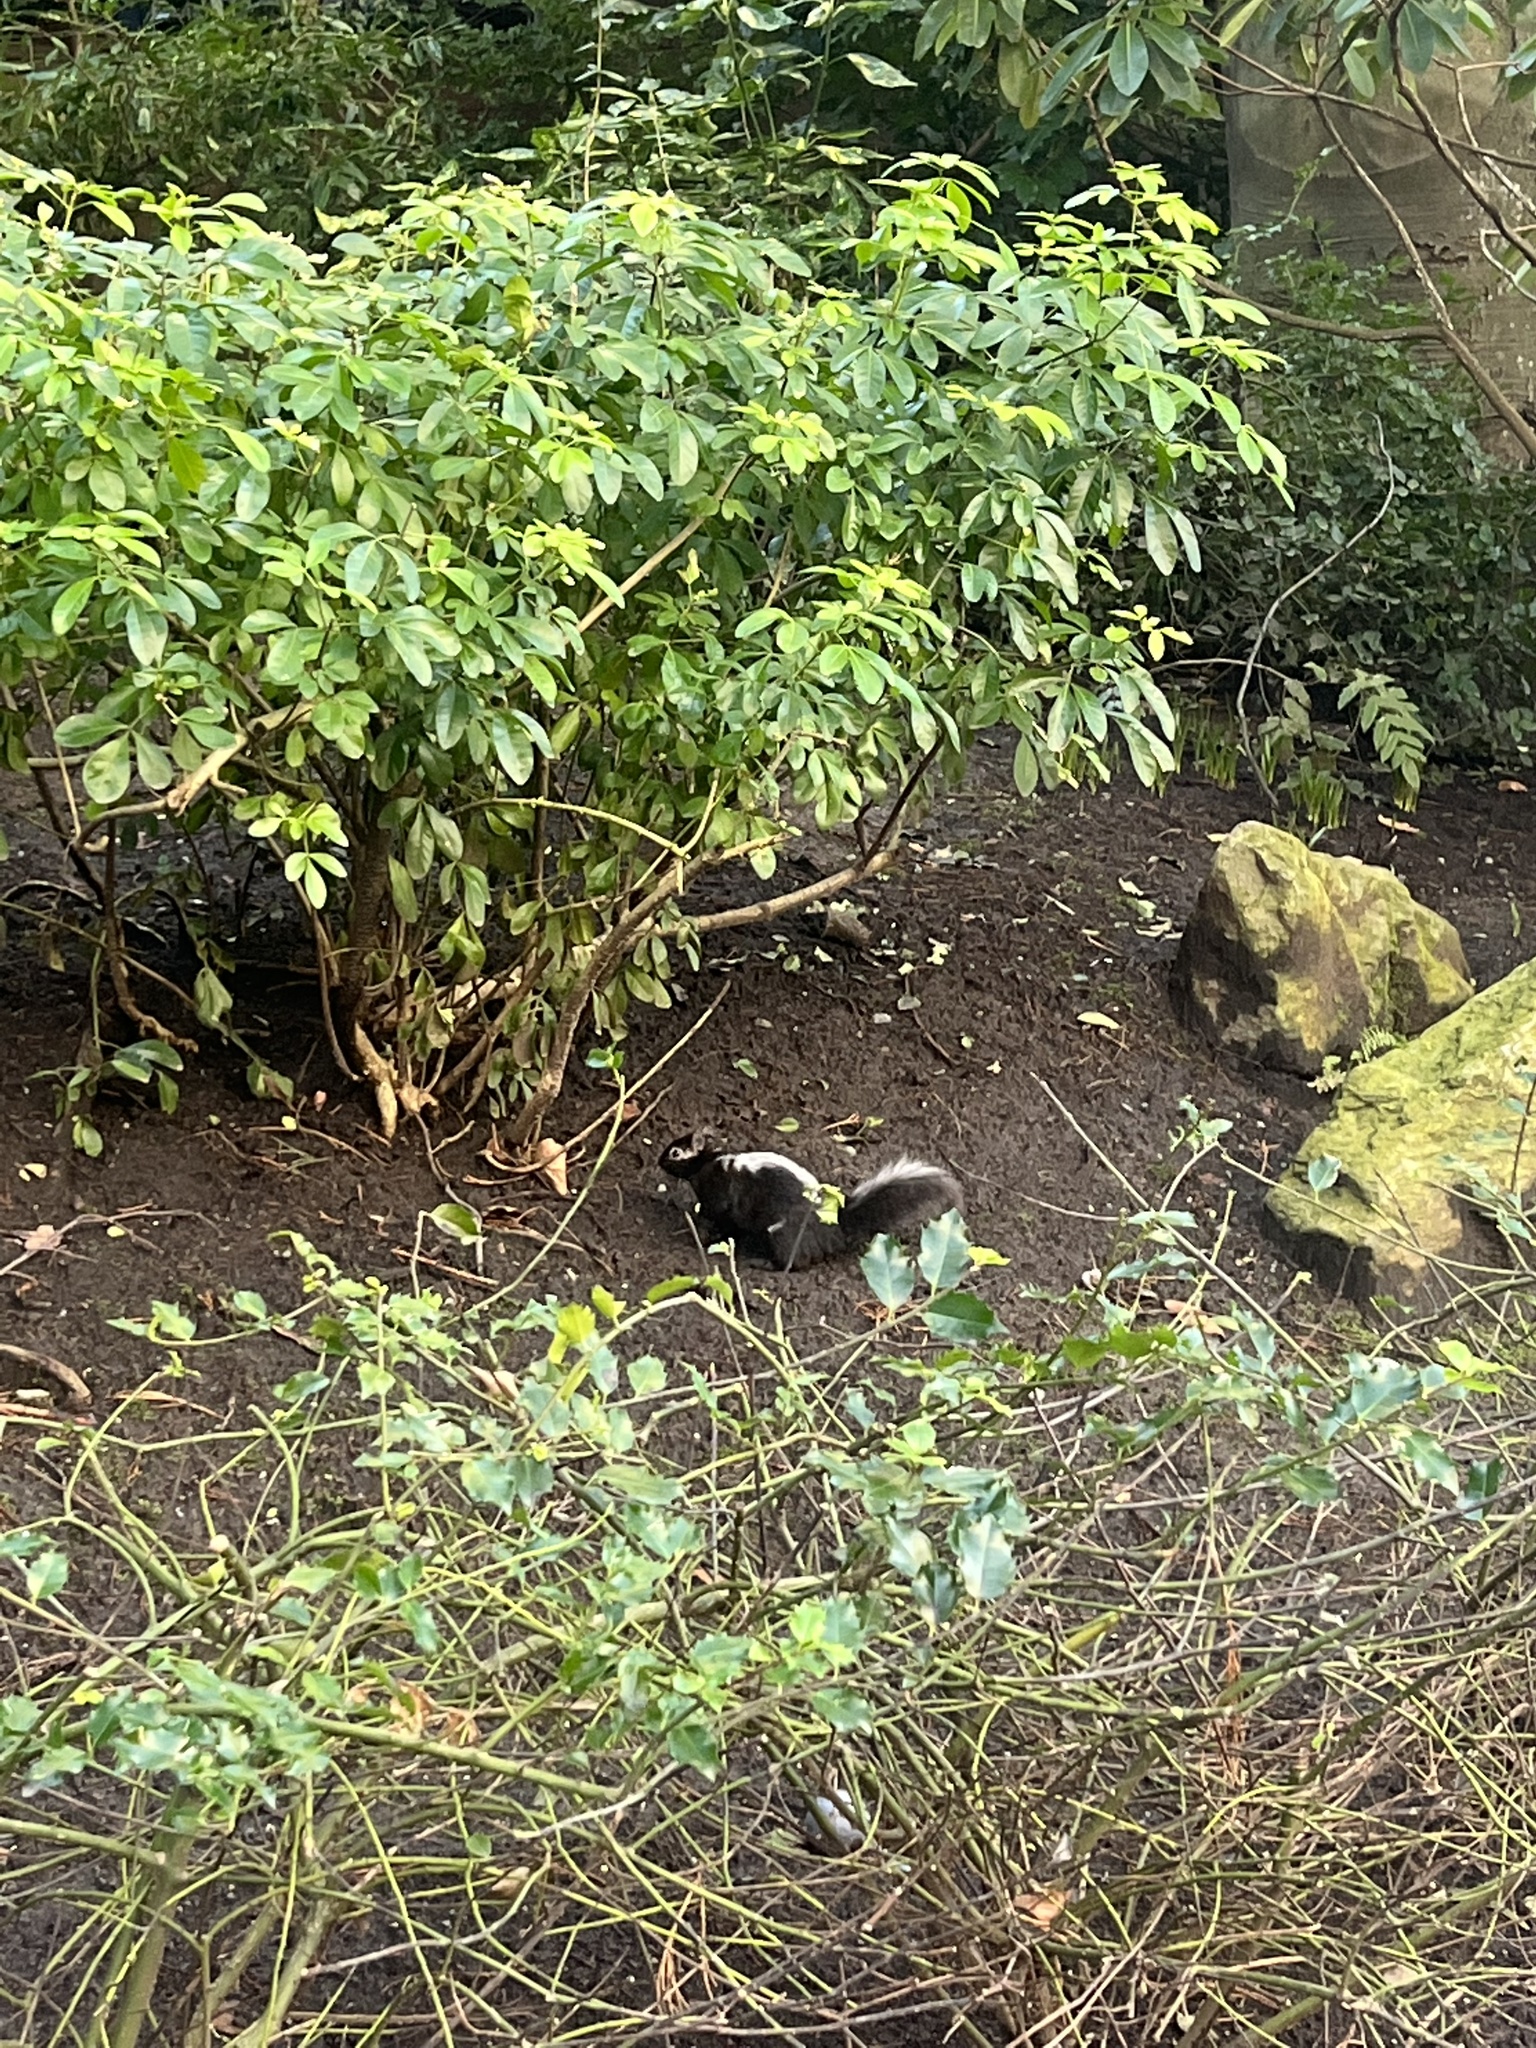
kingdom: Animalia
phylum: Chordata
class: Mammalia
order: Rodentia
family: Sciuridae
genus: Sciurus
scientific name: Sciurus carolinensis
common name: Eastern gray squirrel
